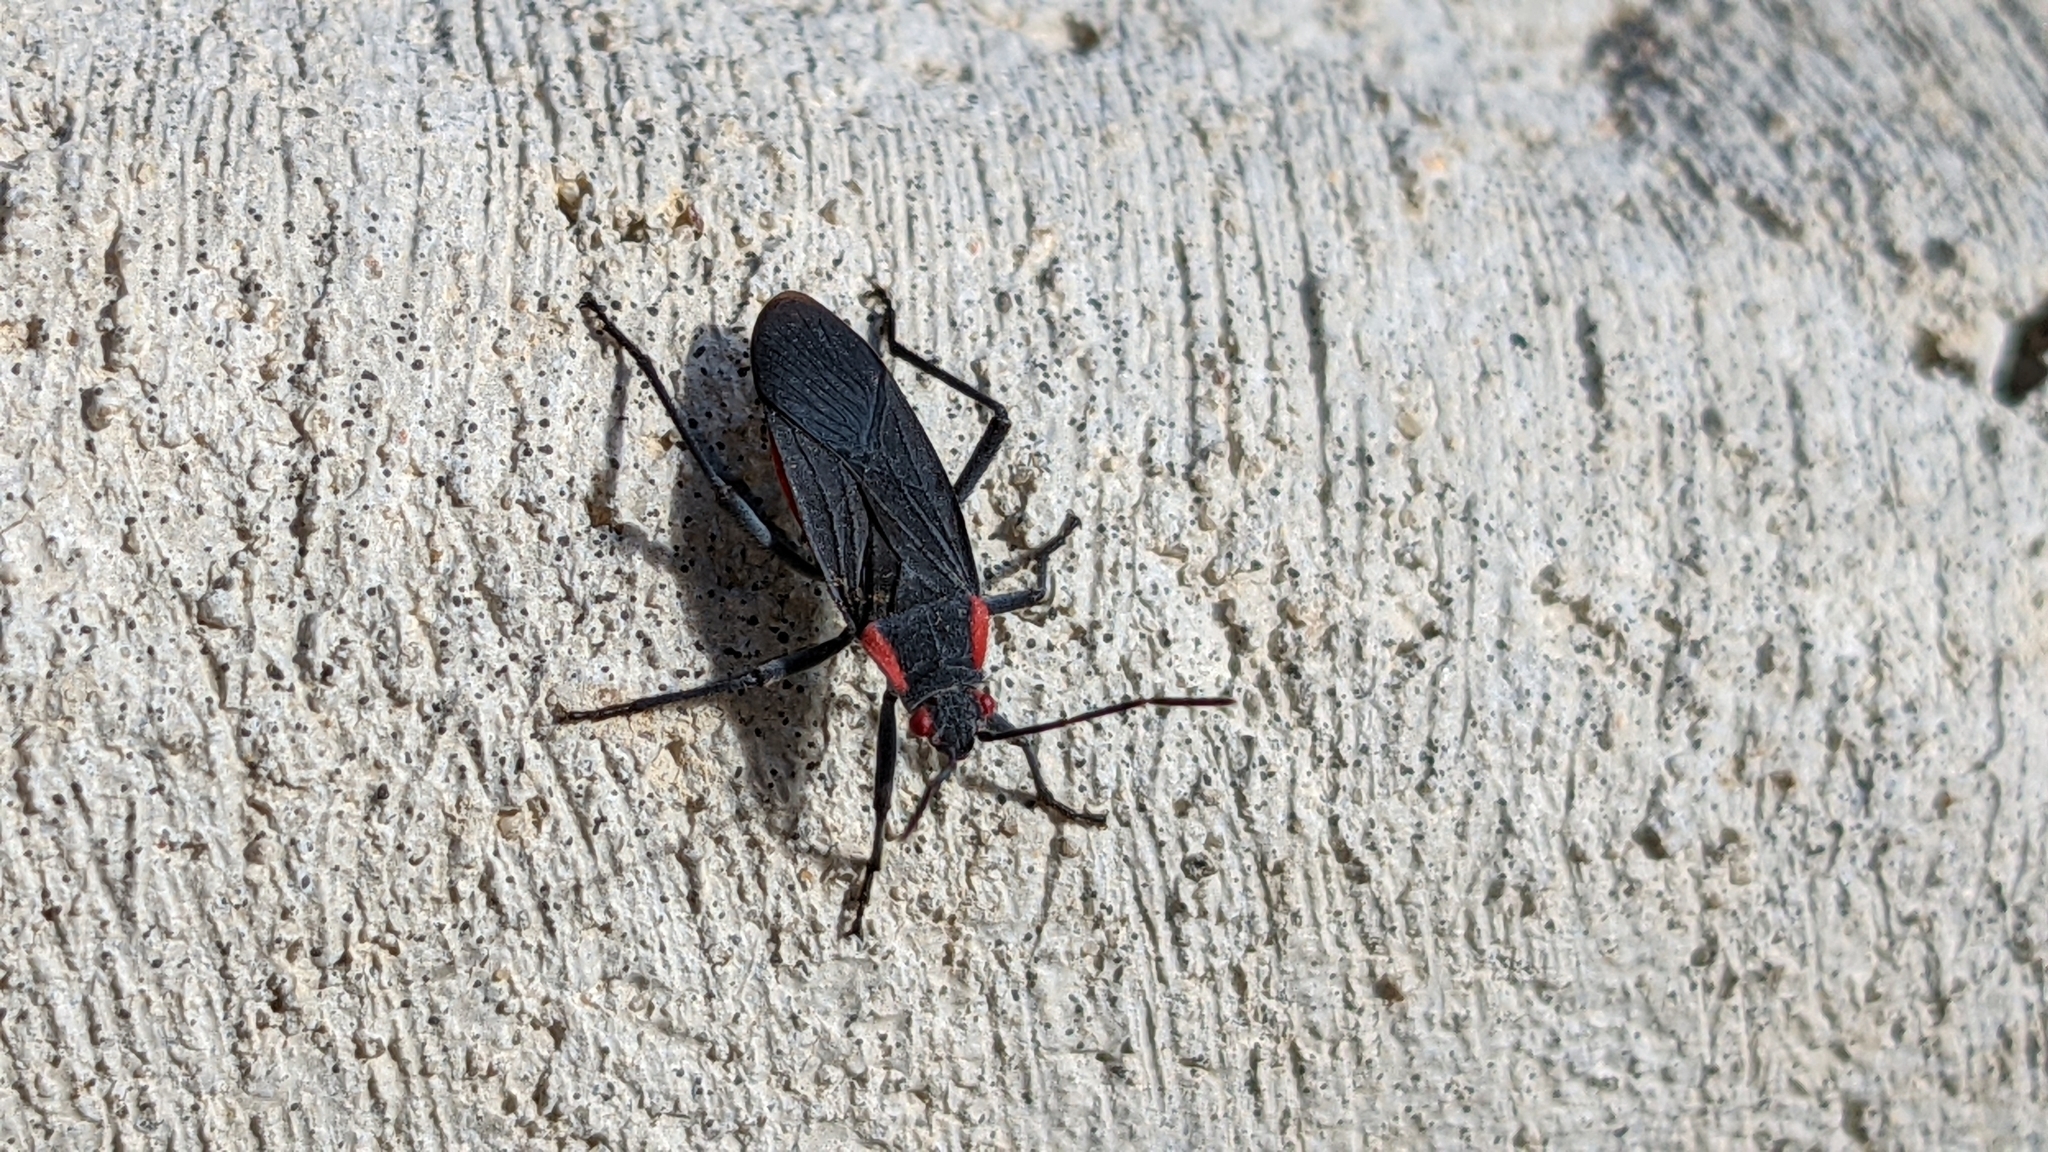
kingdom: Animalia
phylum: Arthropoda
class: Insecta
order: Hemiptera
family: Rhopalidae
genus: Jadera
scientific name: Jadera haematoloma
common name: Red-shouldered bug
